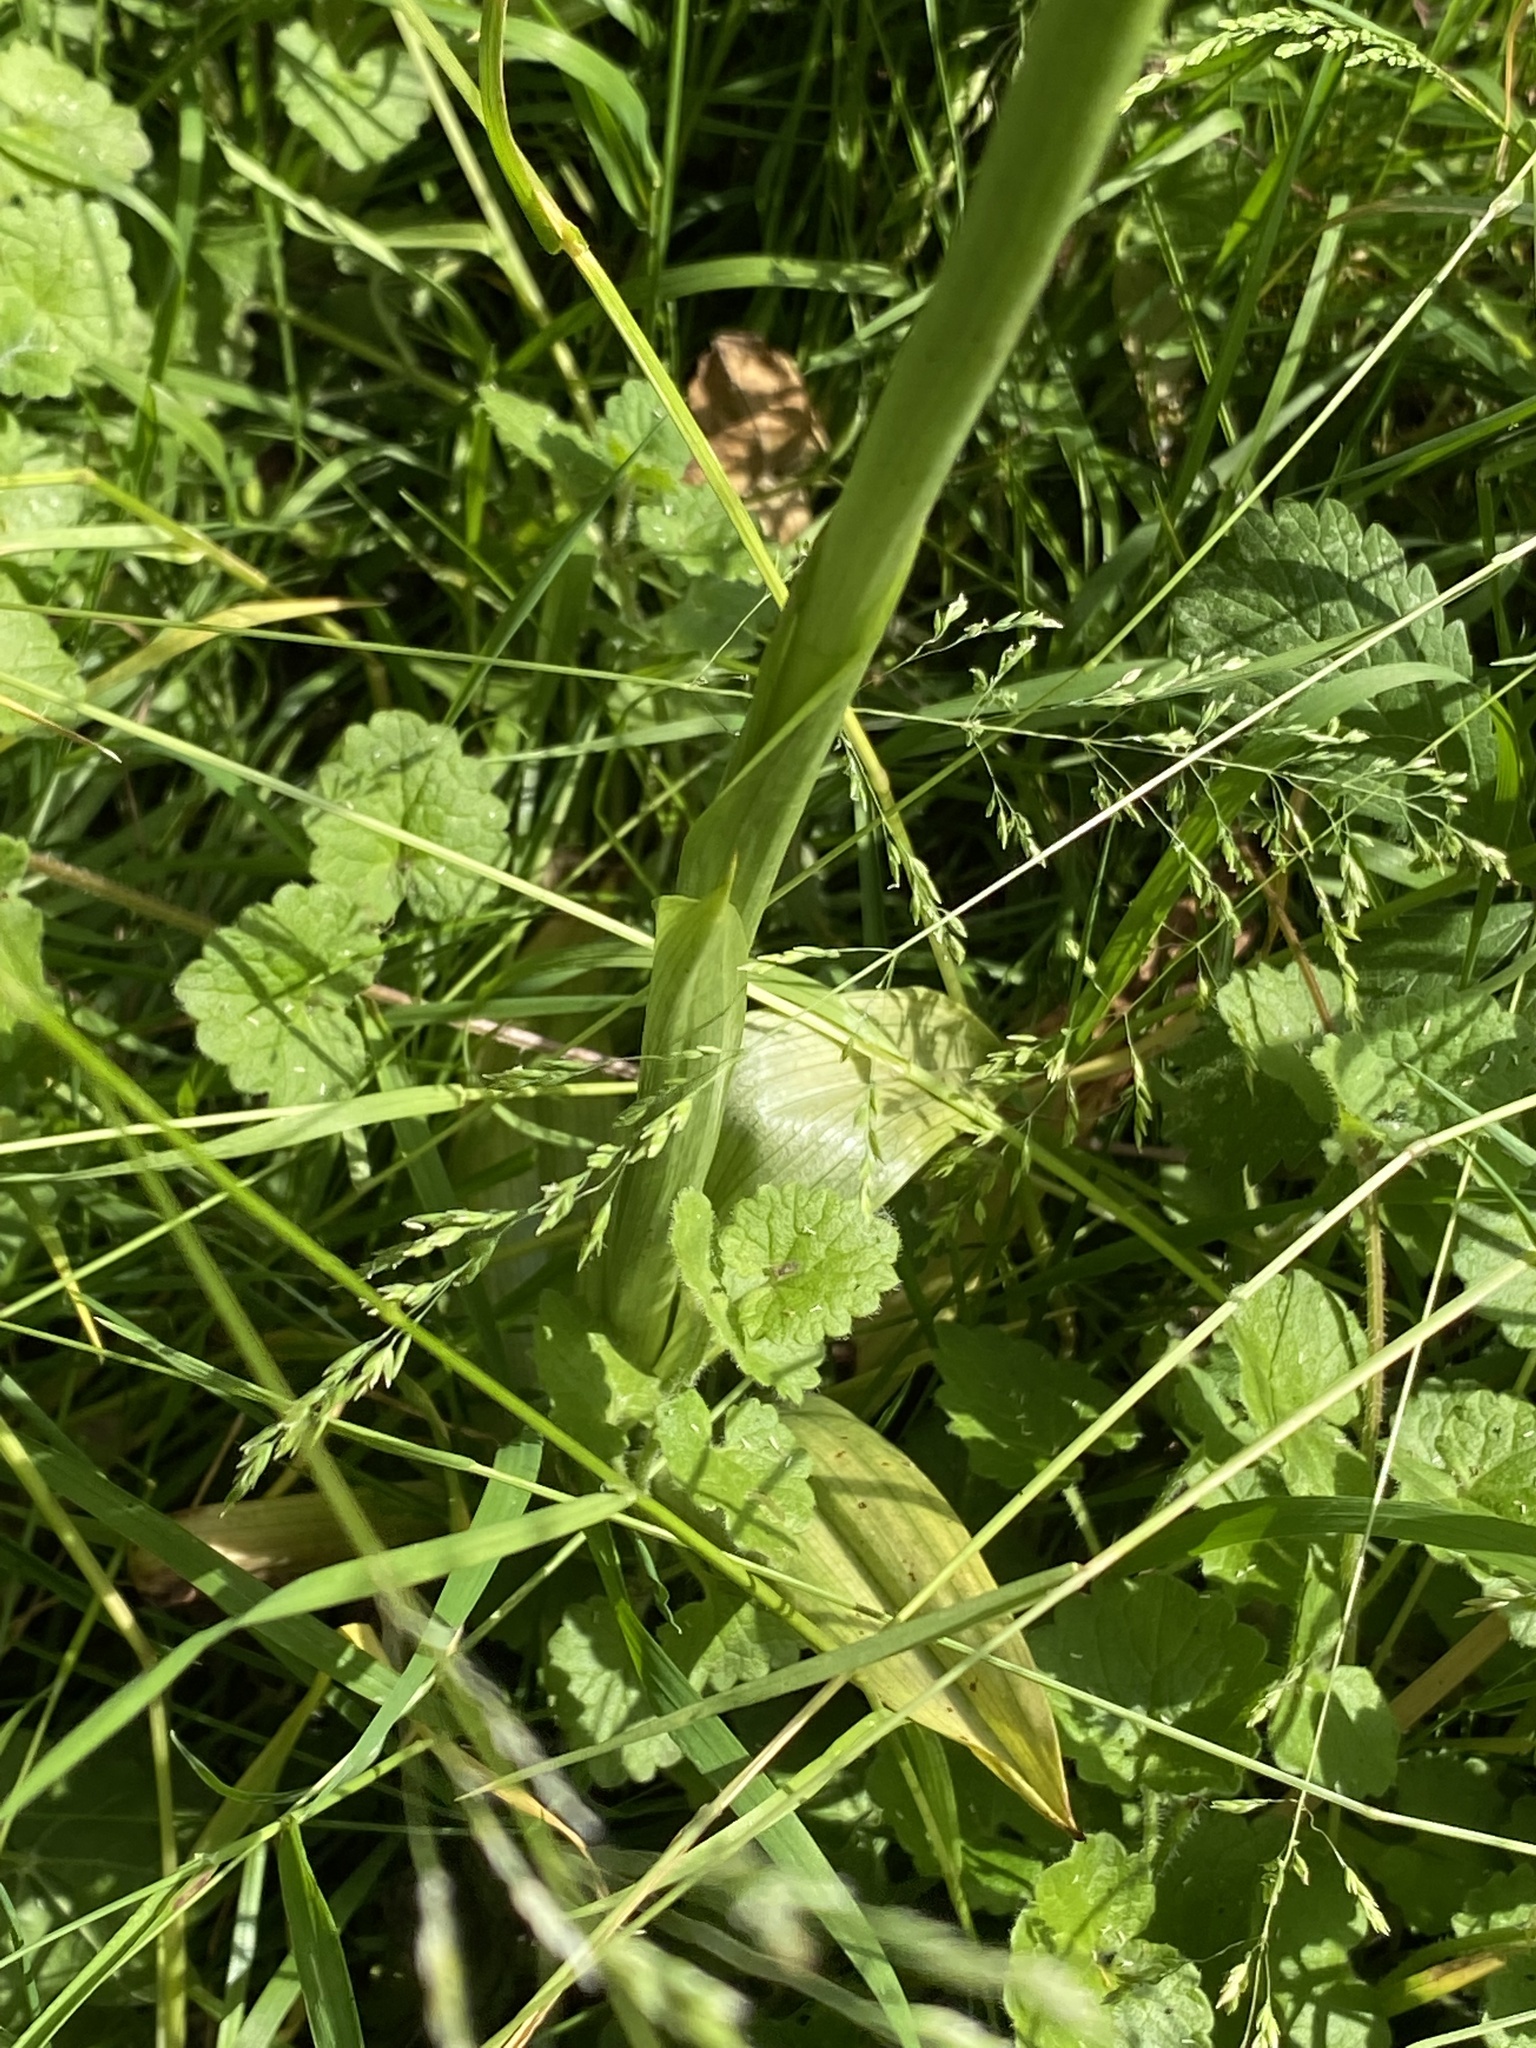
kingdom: Plantae
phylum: Tracheophyta
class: Liliopsida
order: Asparagales
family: Orchidaceae
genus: Anacamptis
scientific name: Anacamptis pyramidalis
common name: Pyramidal orchid
